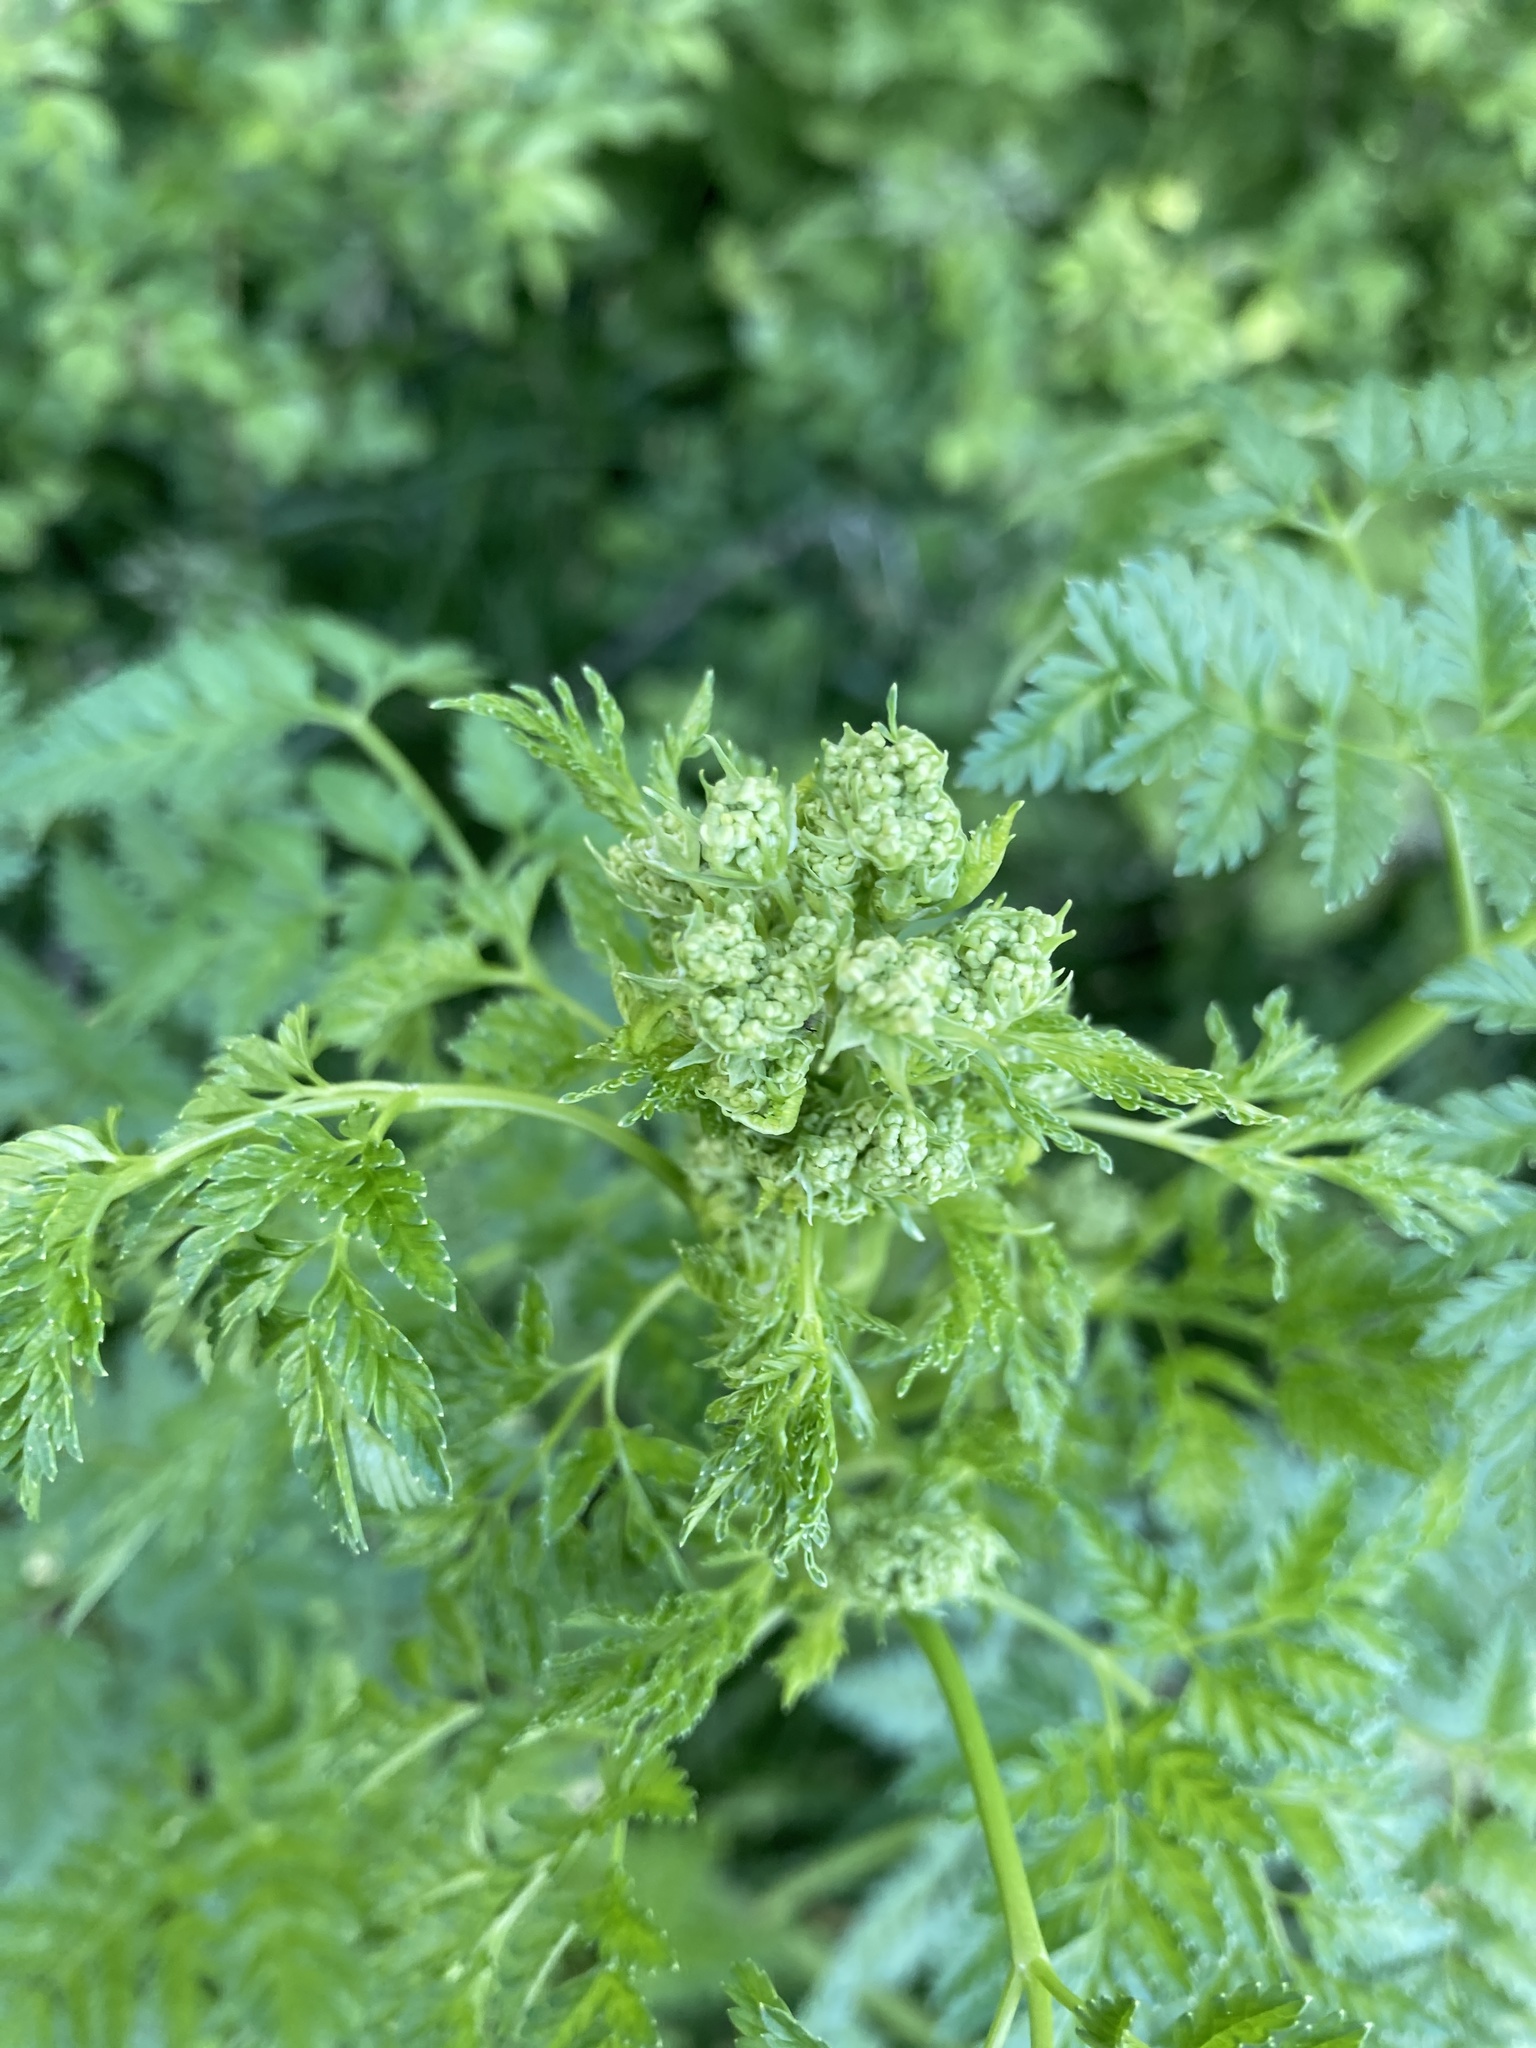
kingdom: Plantae
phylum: Tracheophyta
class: Magnoliopsida
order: Apiales
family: Apiaceae
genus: Conium
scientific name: Conium maculatum
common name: Hemlock
